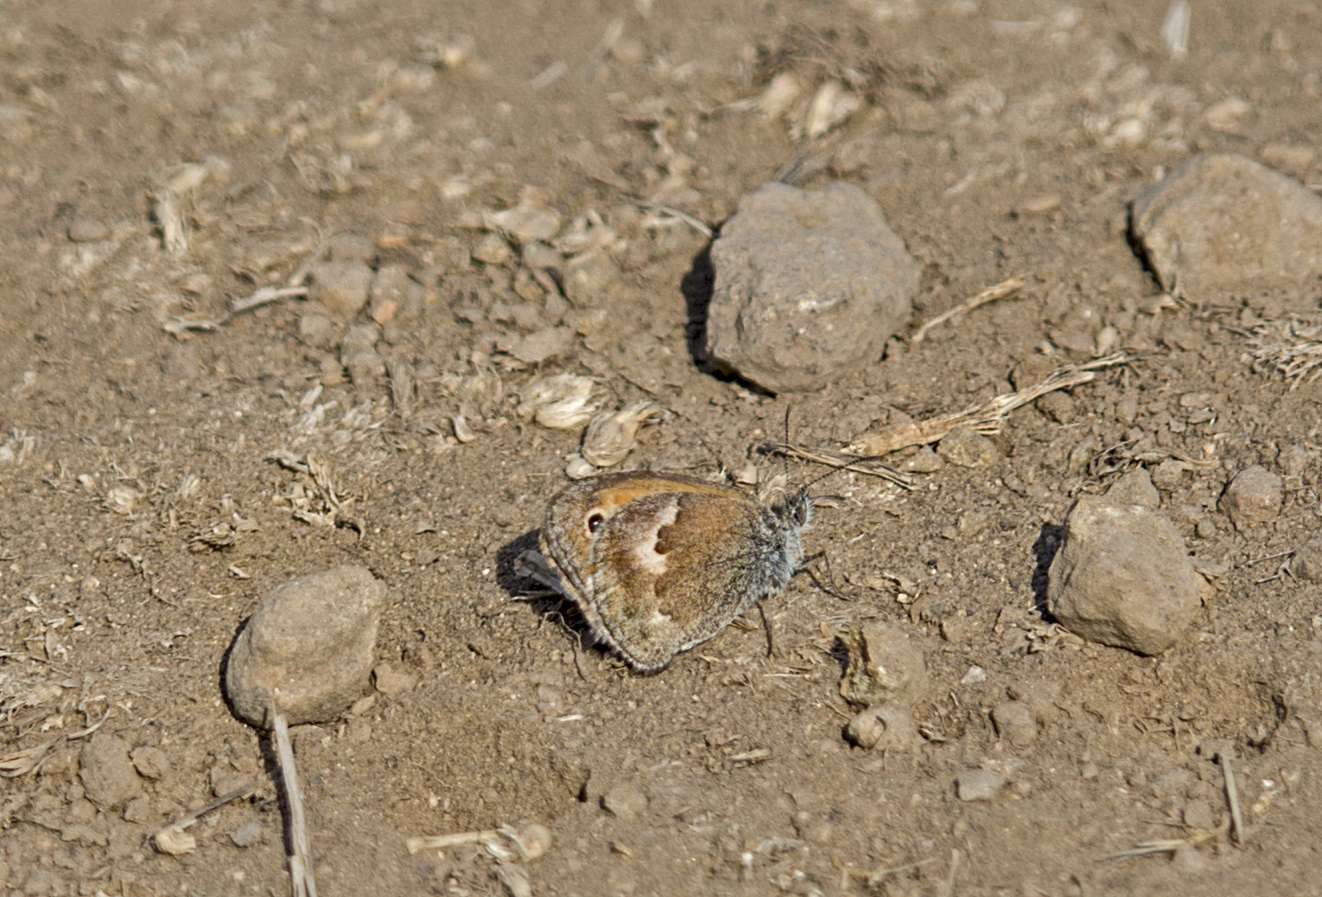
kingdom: Animalia
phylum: Arthropoda
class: Insecta
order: Lepidoptera
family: Nymphalidae
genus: Coenonympha
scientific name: Coenonympha pamphilus
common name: Small heath
